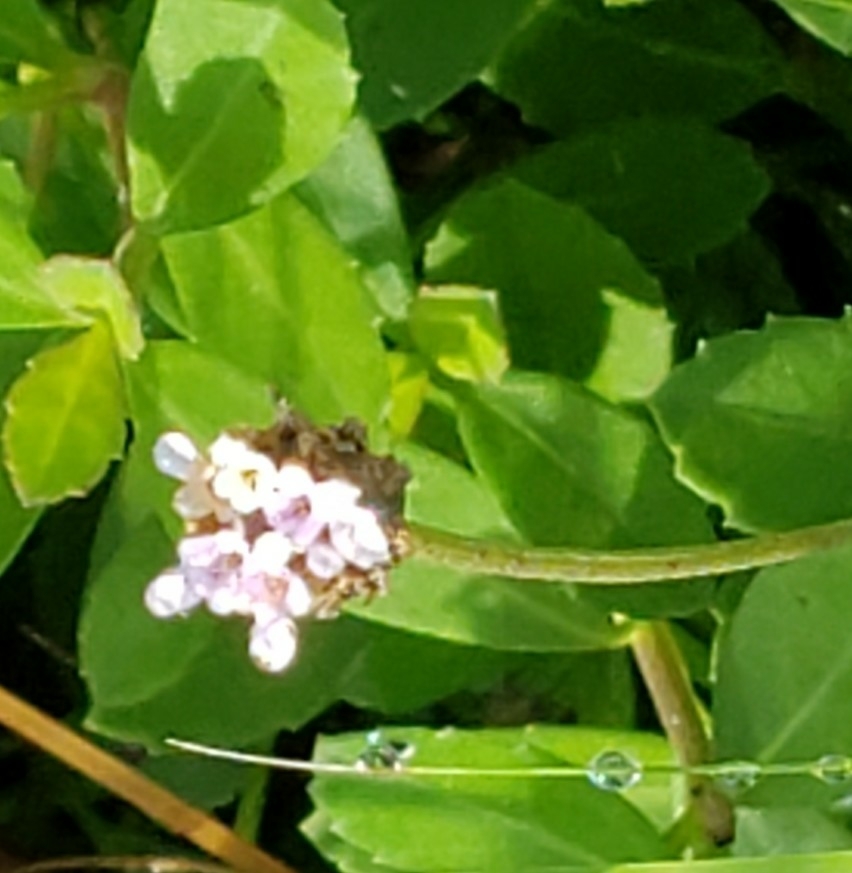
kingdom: Plantae
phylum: Tracheophyta
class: Magnoliopsida
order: Lamiales
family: Verbenaceae
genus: Phyla
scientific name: Phyla nodiflora
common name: Frogfruit
